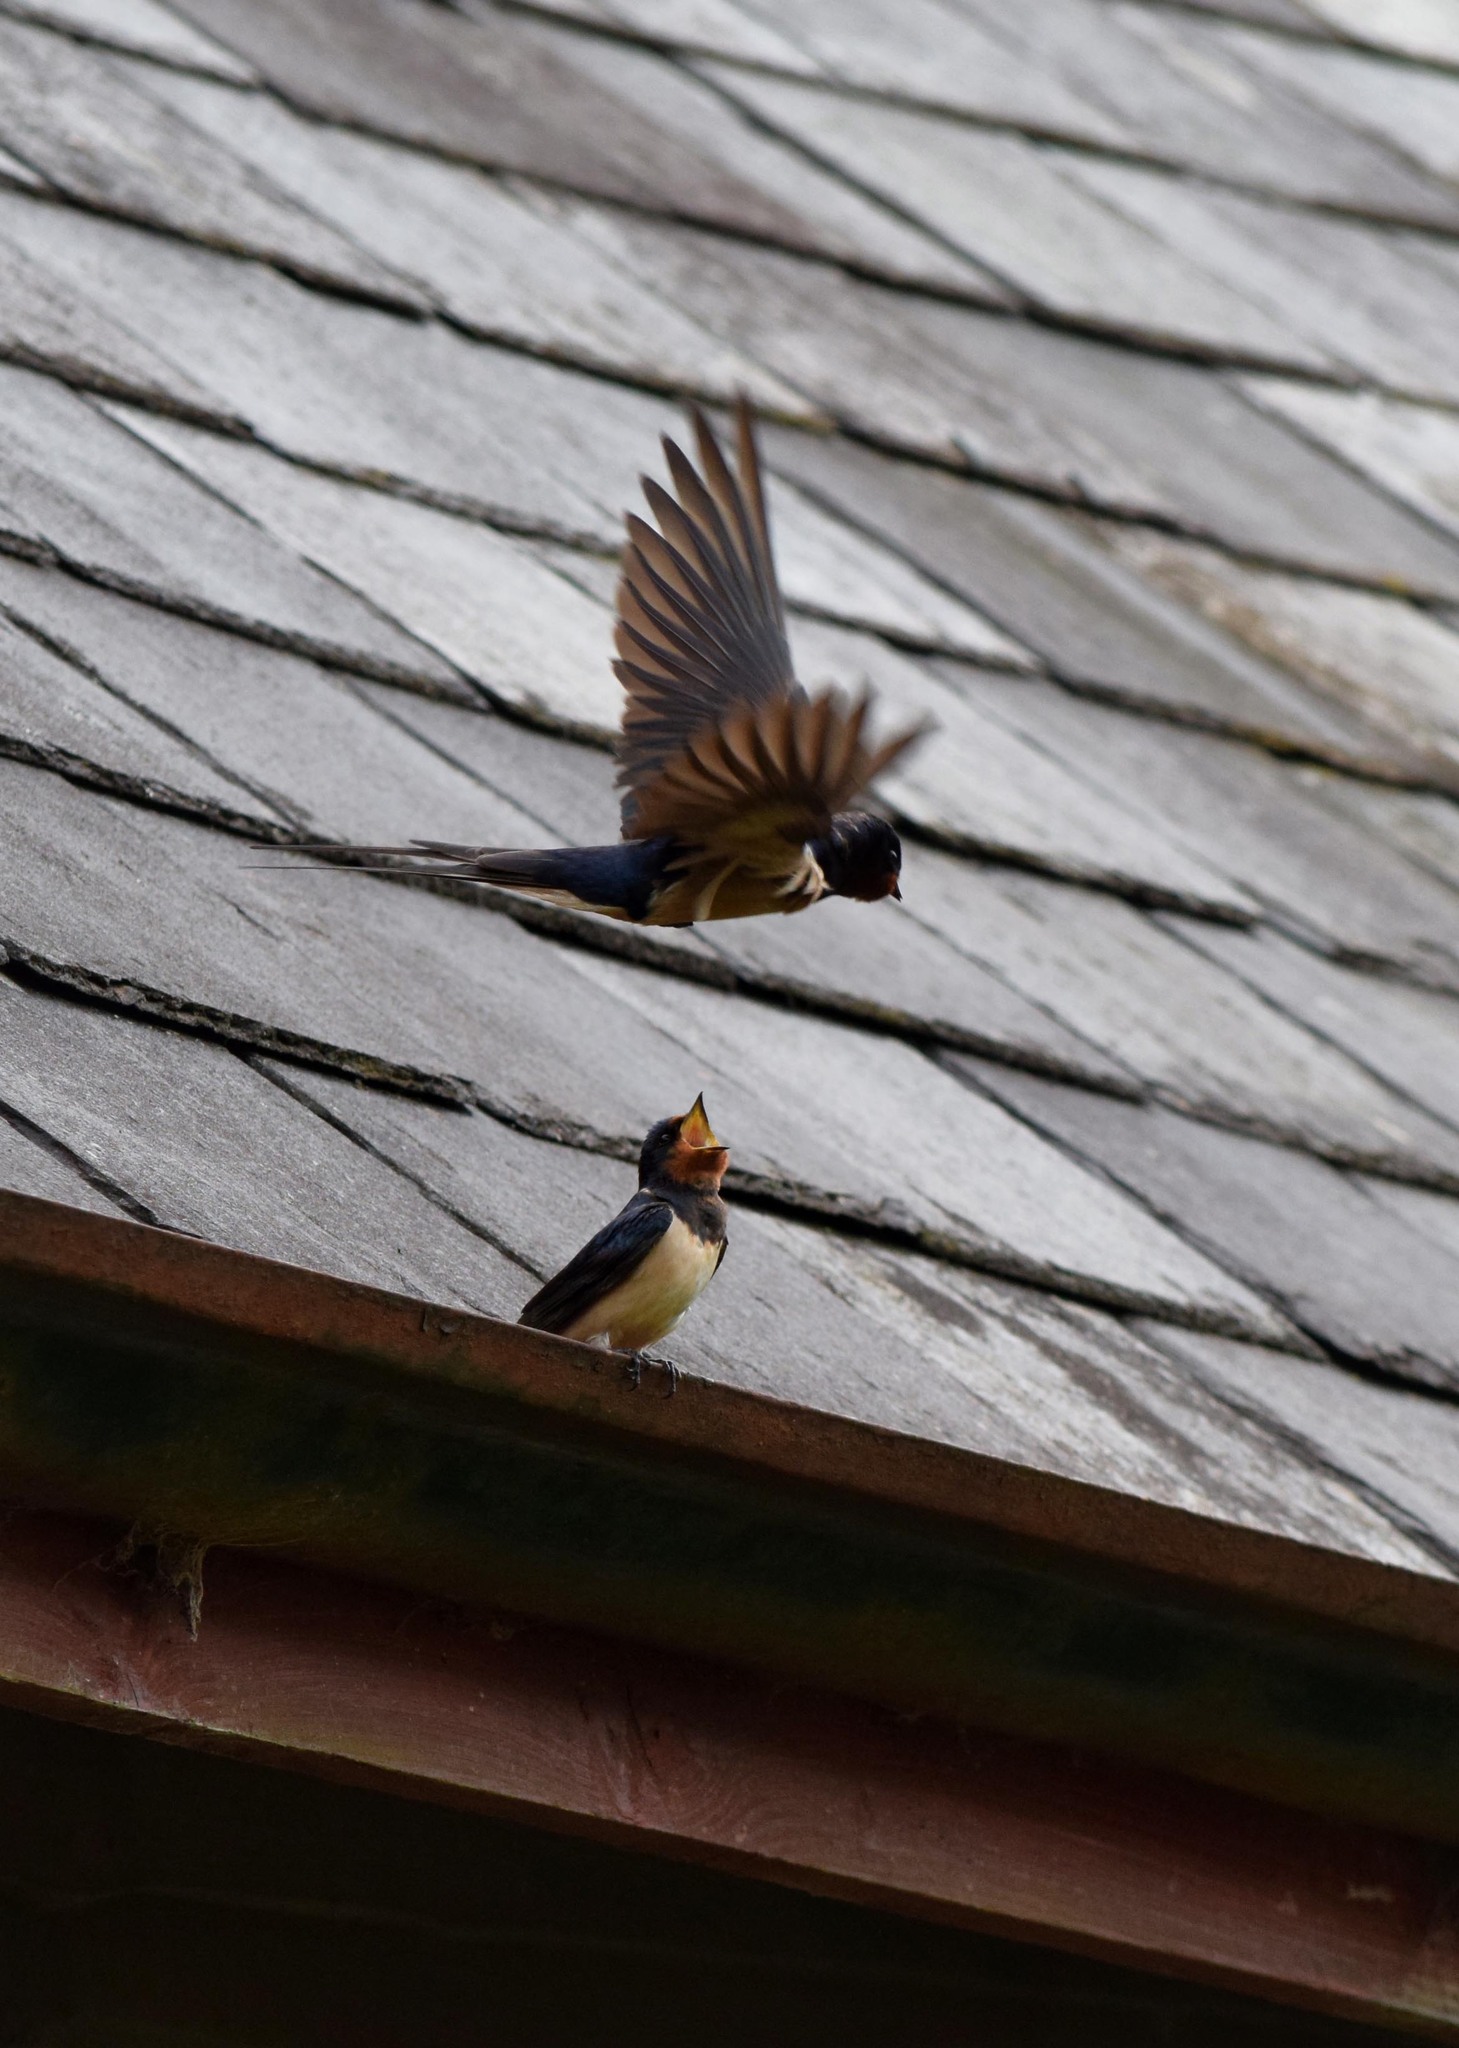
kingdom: Animalia
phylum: Chordata
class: Aves
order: Passeriformes
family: Hirundinidae
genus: Hirundo
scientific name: Hirundo rustica
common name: Barn swallow
